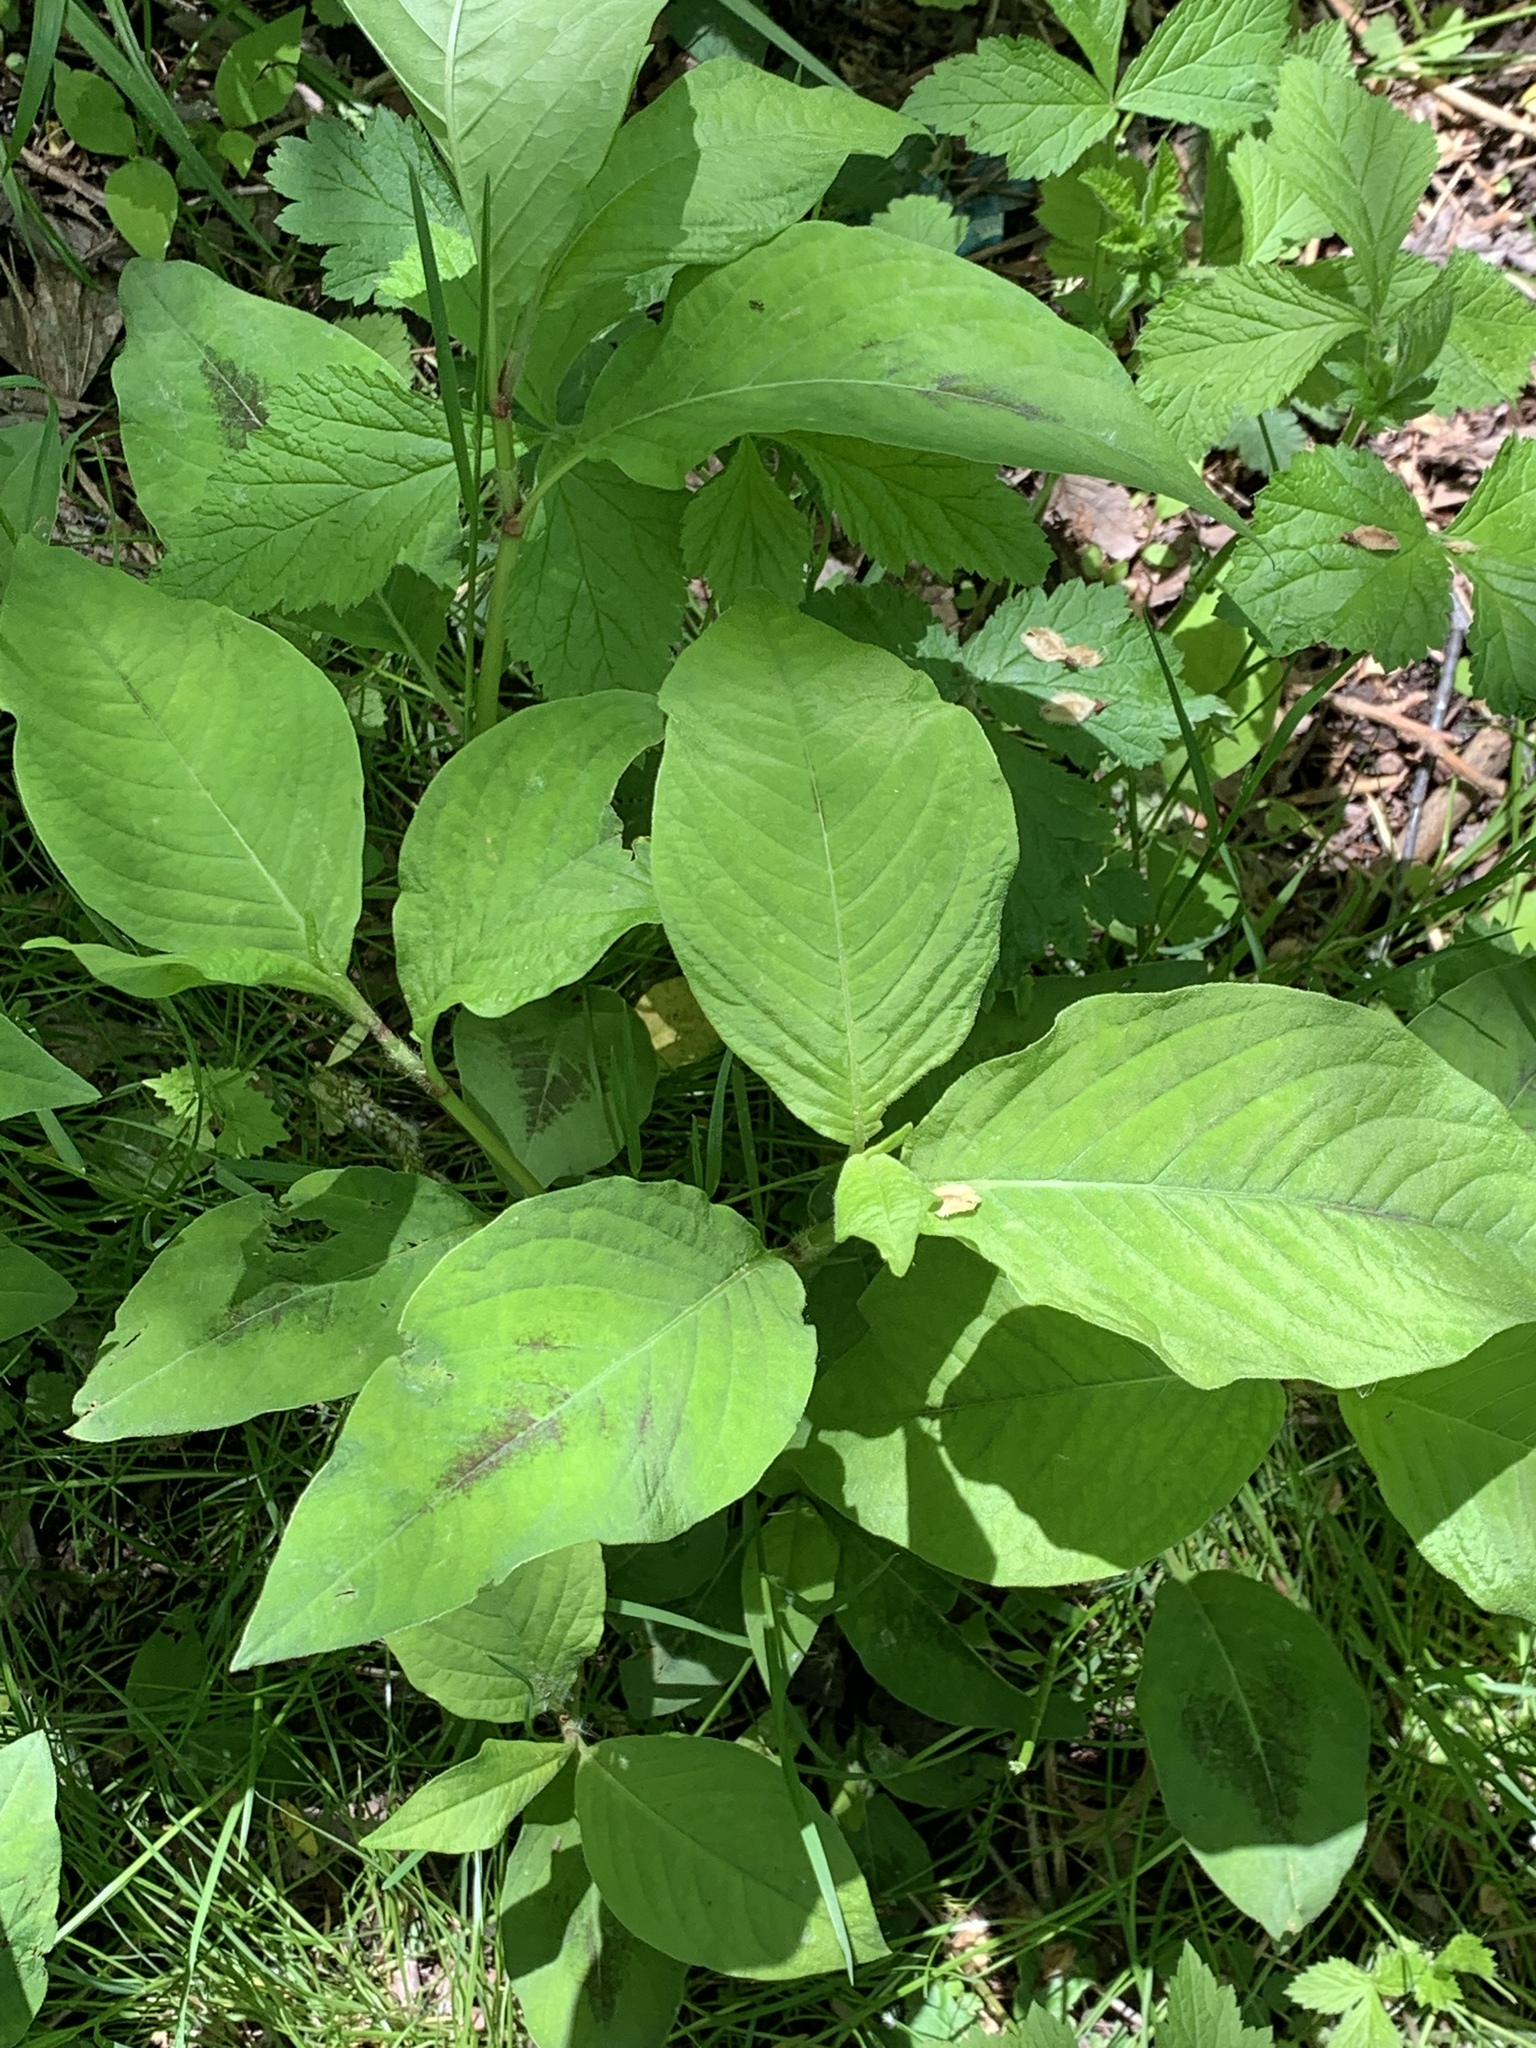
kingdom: Plantae
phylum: Tracheophyta
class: Magnoliopsida
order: Caryophyllales
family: Polygonaceae
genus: Persicaria
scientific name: Persicaria virginiana
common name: Jumpseed
